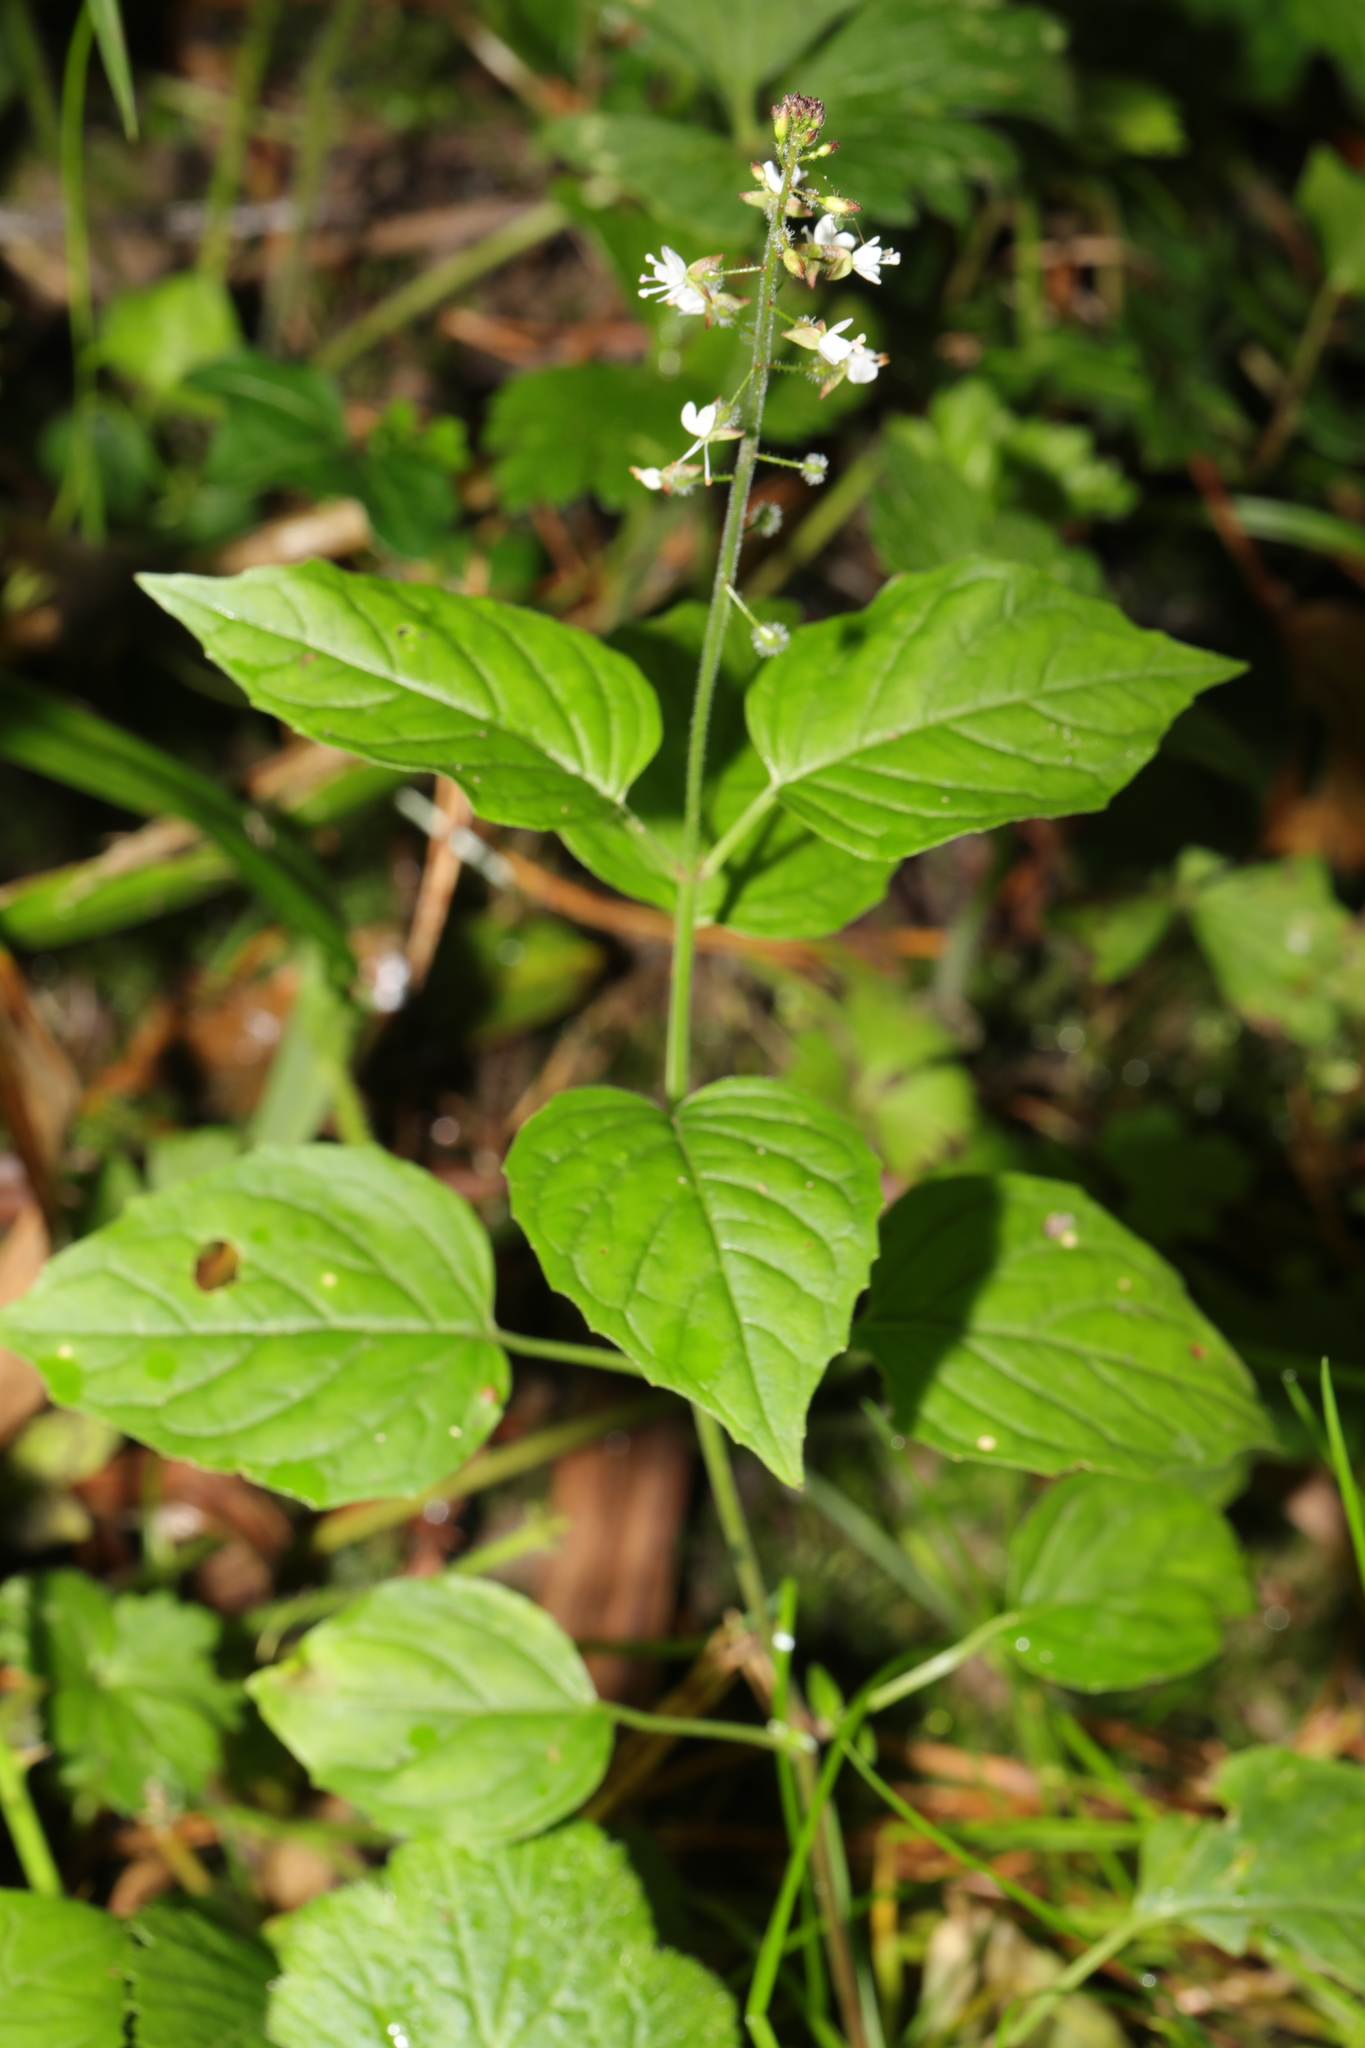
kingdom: Plantae
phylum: Tracheophyta
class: Magnoliopsida
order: Myrtales
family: Onagraceae
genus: Circaea
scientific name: Circaea lutetiana
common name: Enchanter's-nightshade
